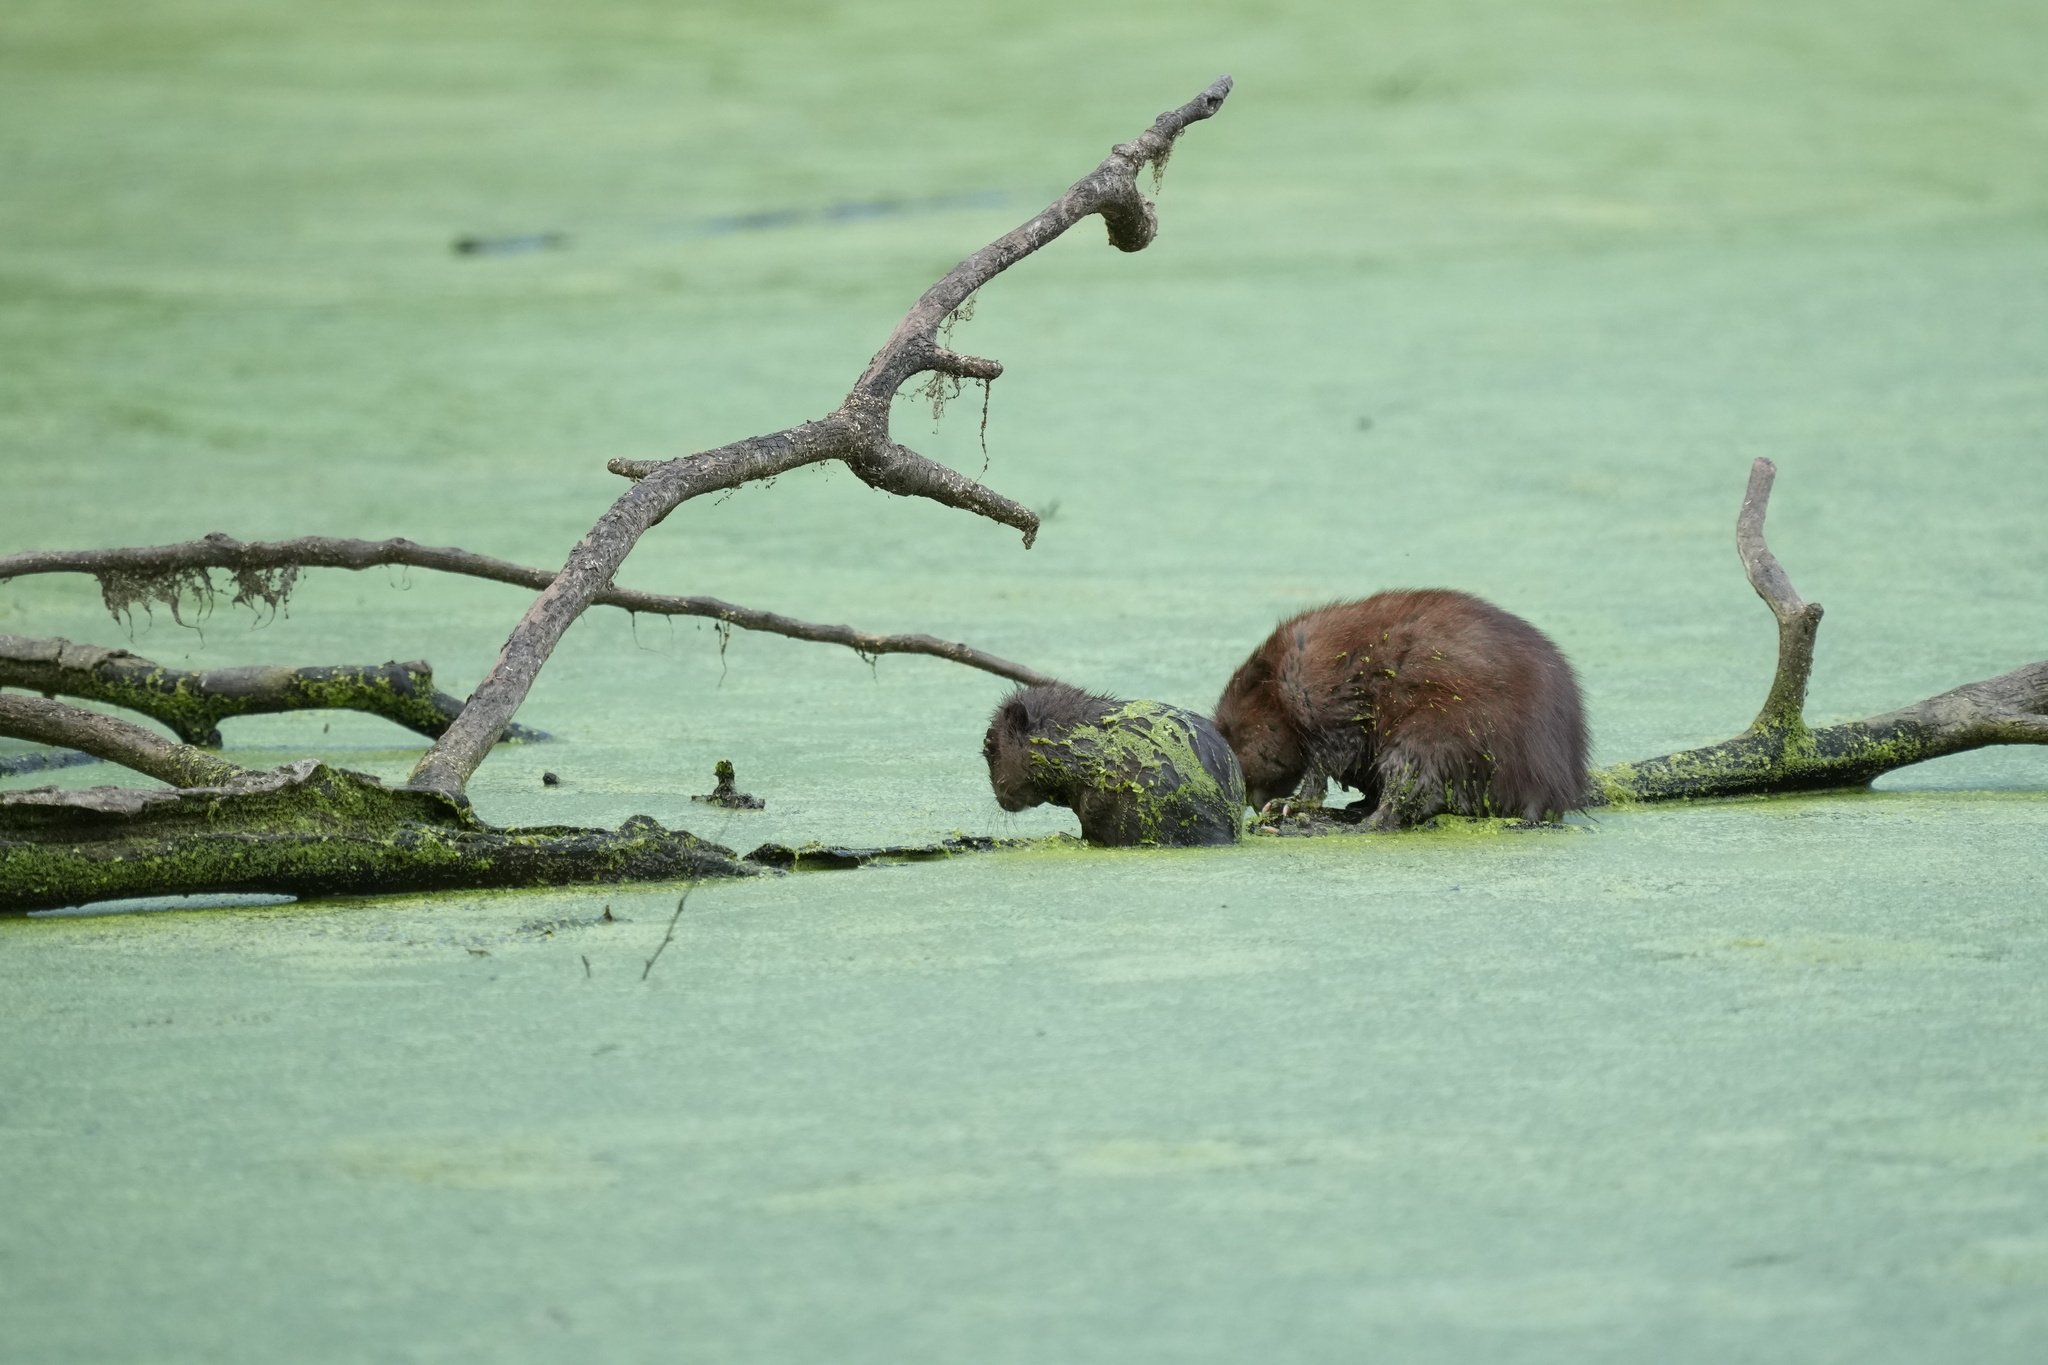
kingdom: Animalia
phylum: Chordata
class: Mammalia
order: Rodentia
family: Cricetidae
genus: Ondatra
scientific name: Ondatra zibethicus
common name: Muskrat
